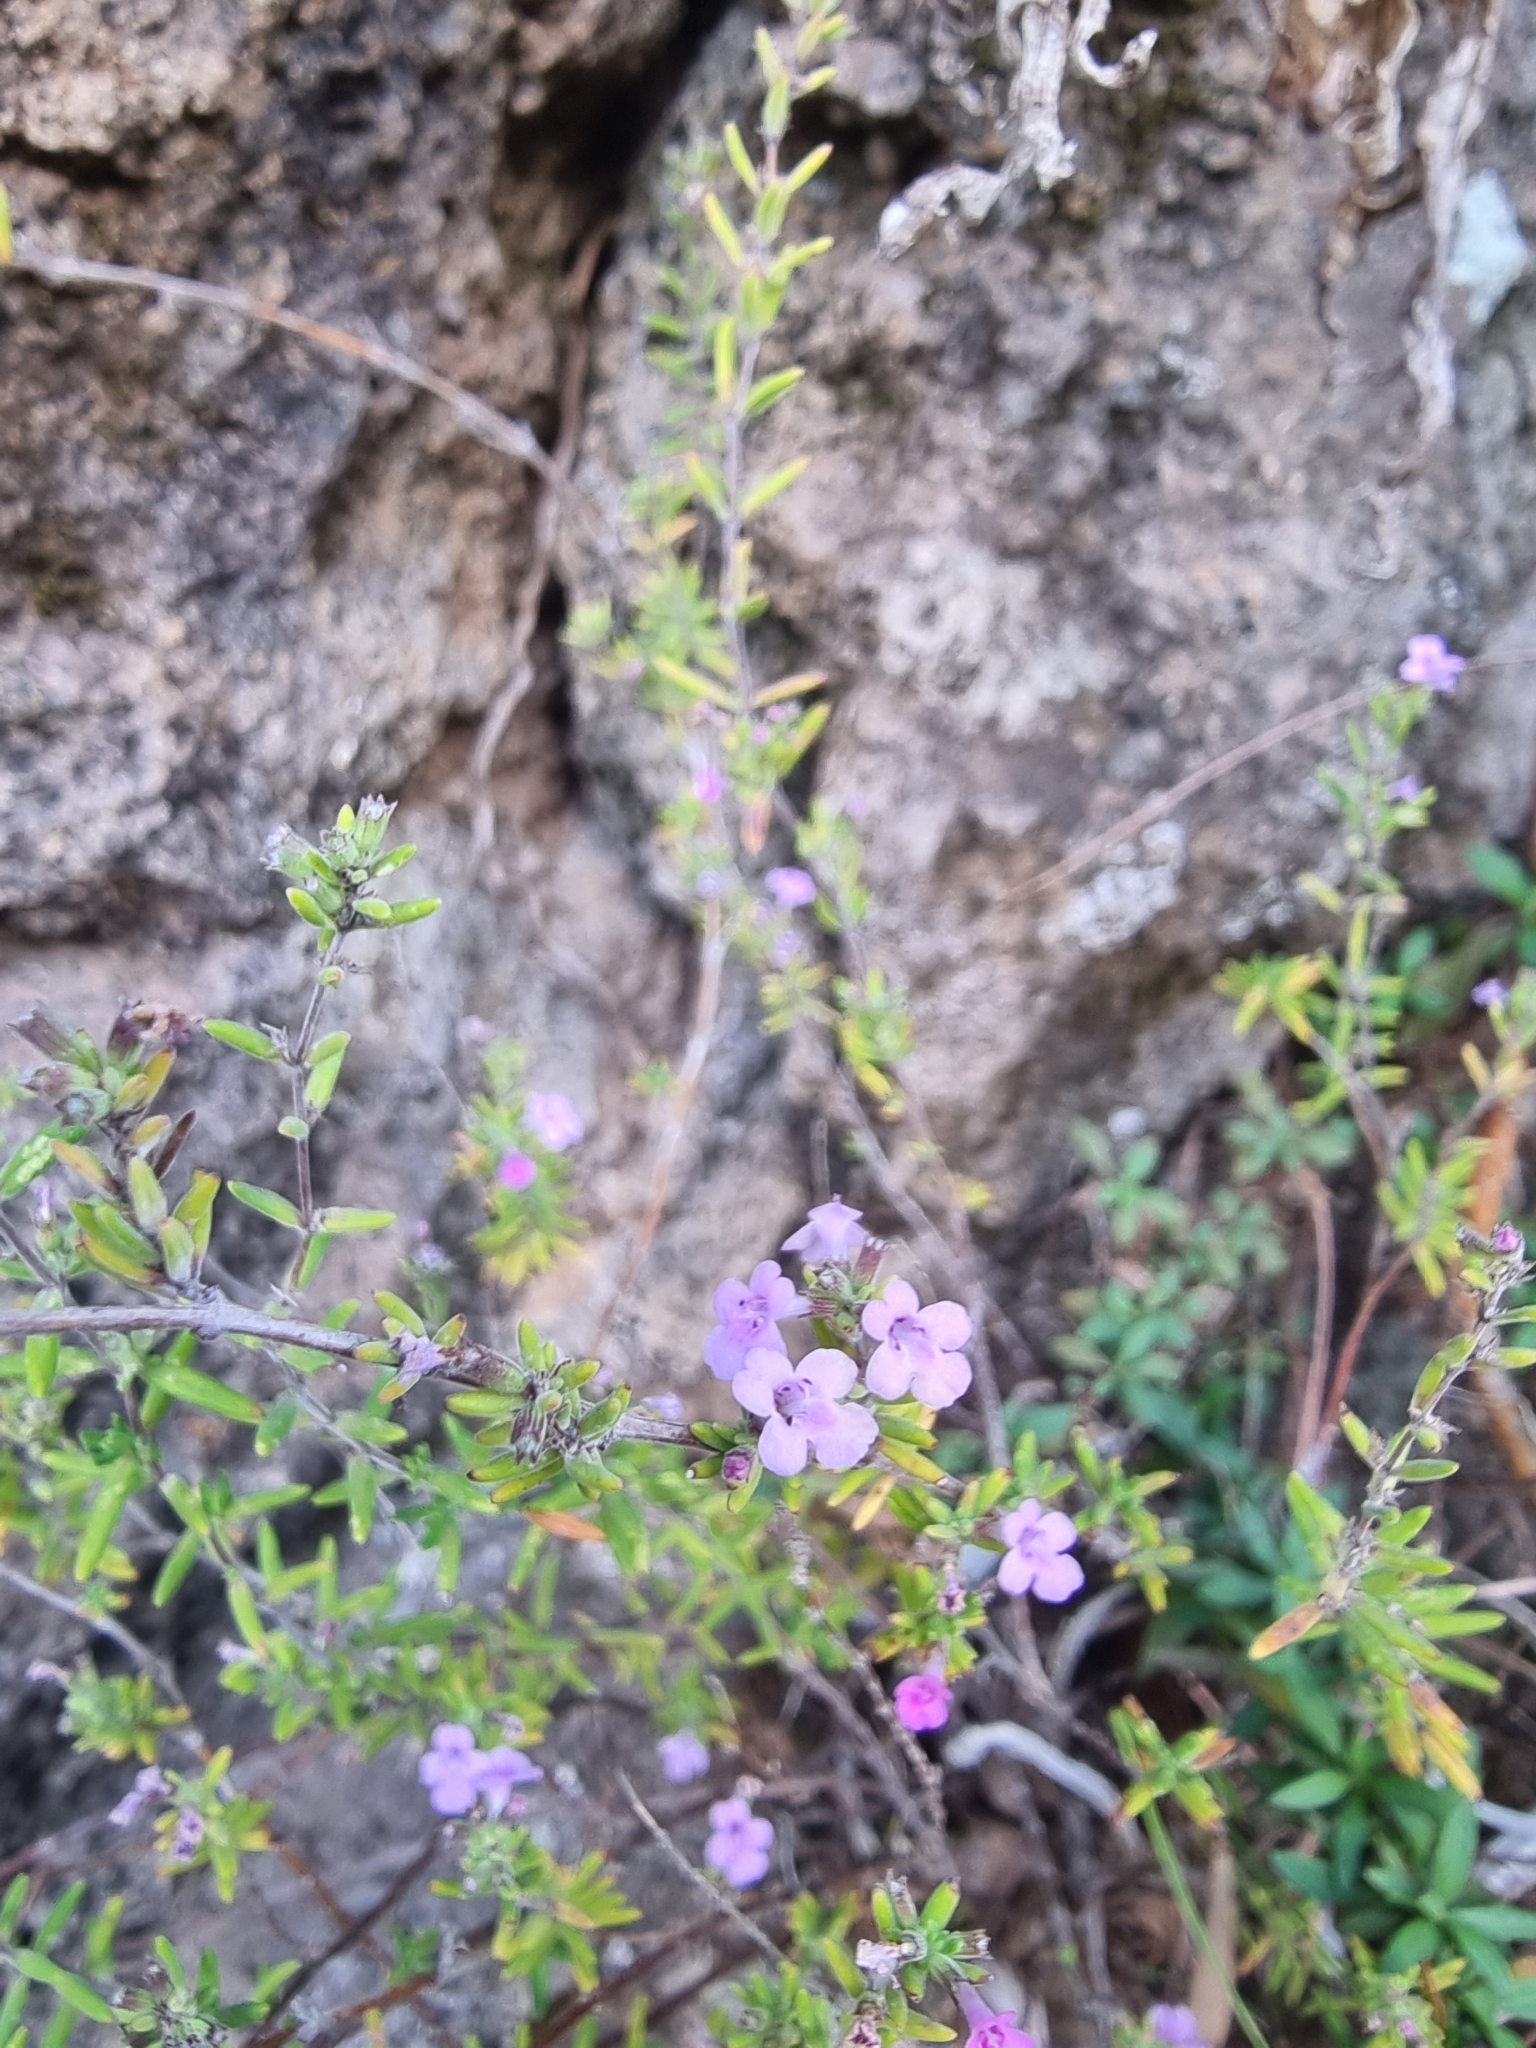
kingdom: Plantae
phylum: Tracheophyta
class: Magnoliopsida
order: Lamiales
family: Lamiaceae
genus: Micromeria
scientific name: Micromeria maderensis
